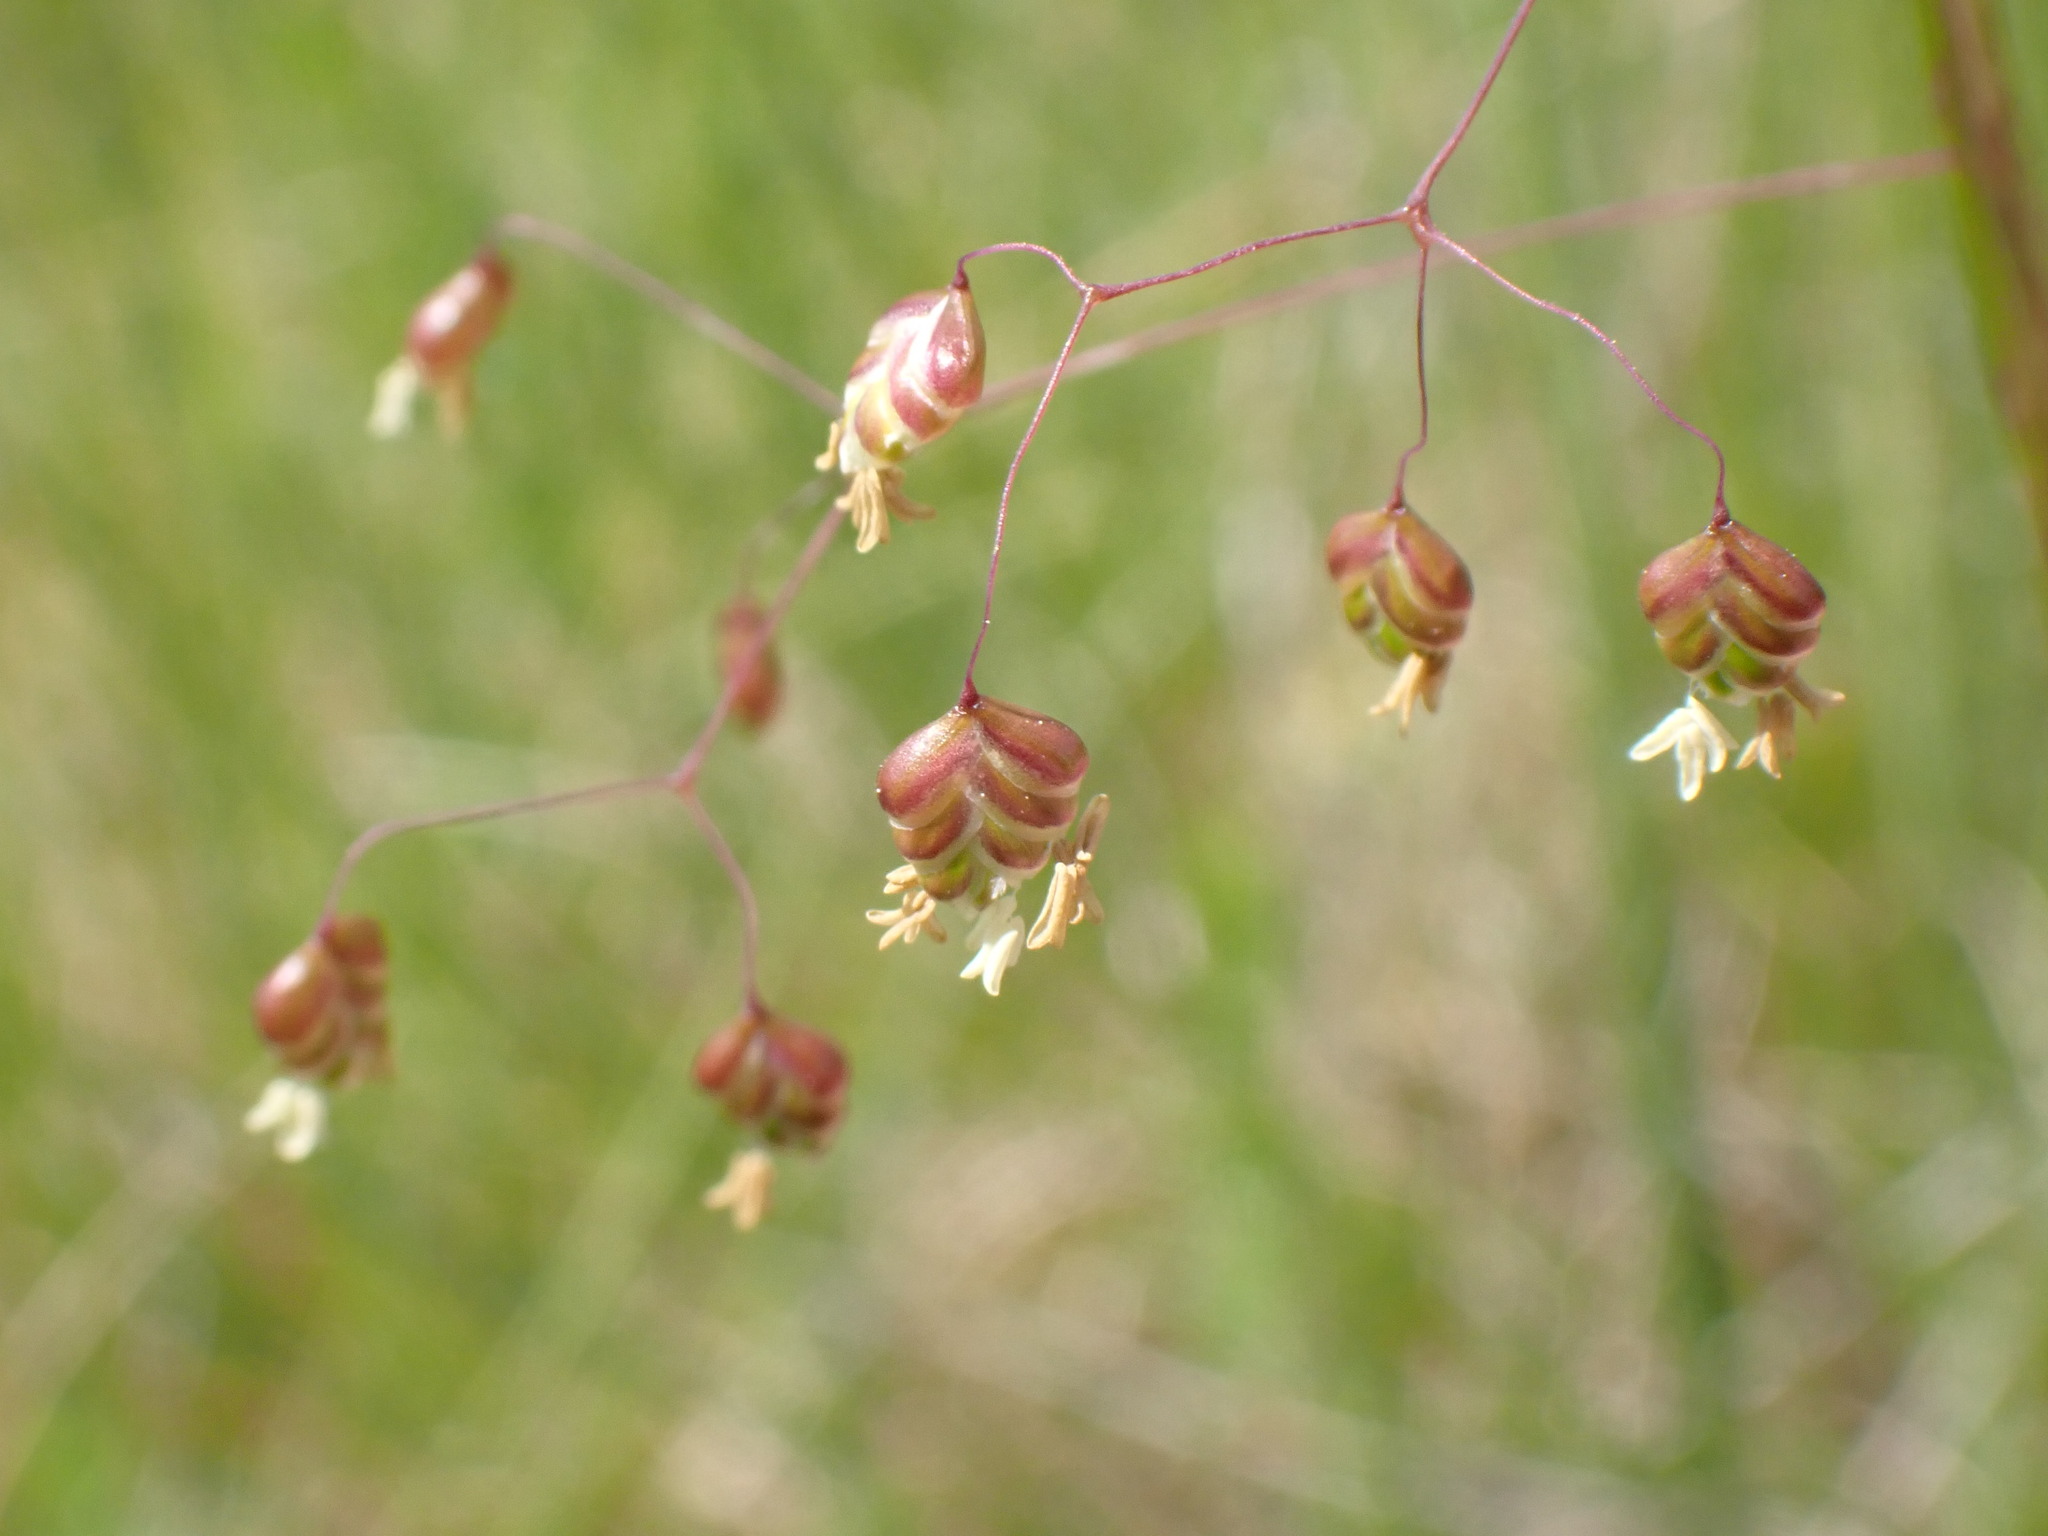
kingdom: Plantae
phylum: Tracheophyta
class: Liliopsida
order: Poales
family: Poaceae
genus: Briza
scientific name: Briza media
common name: Quaking grass
